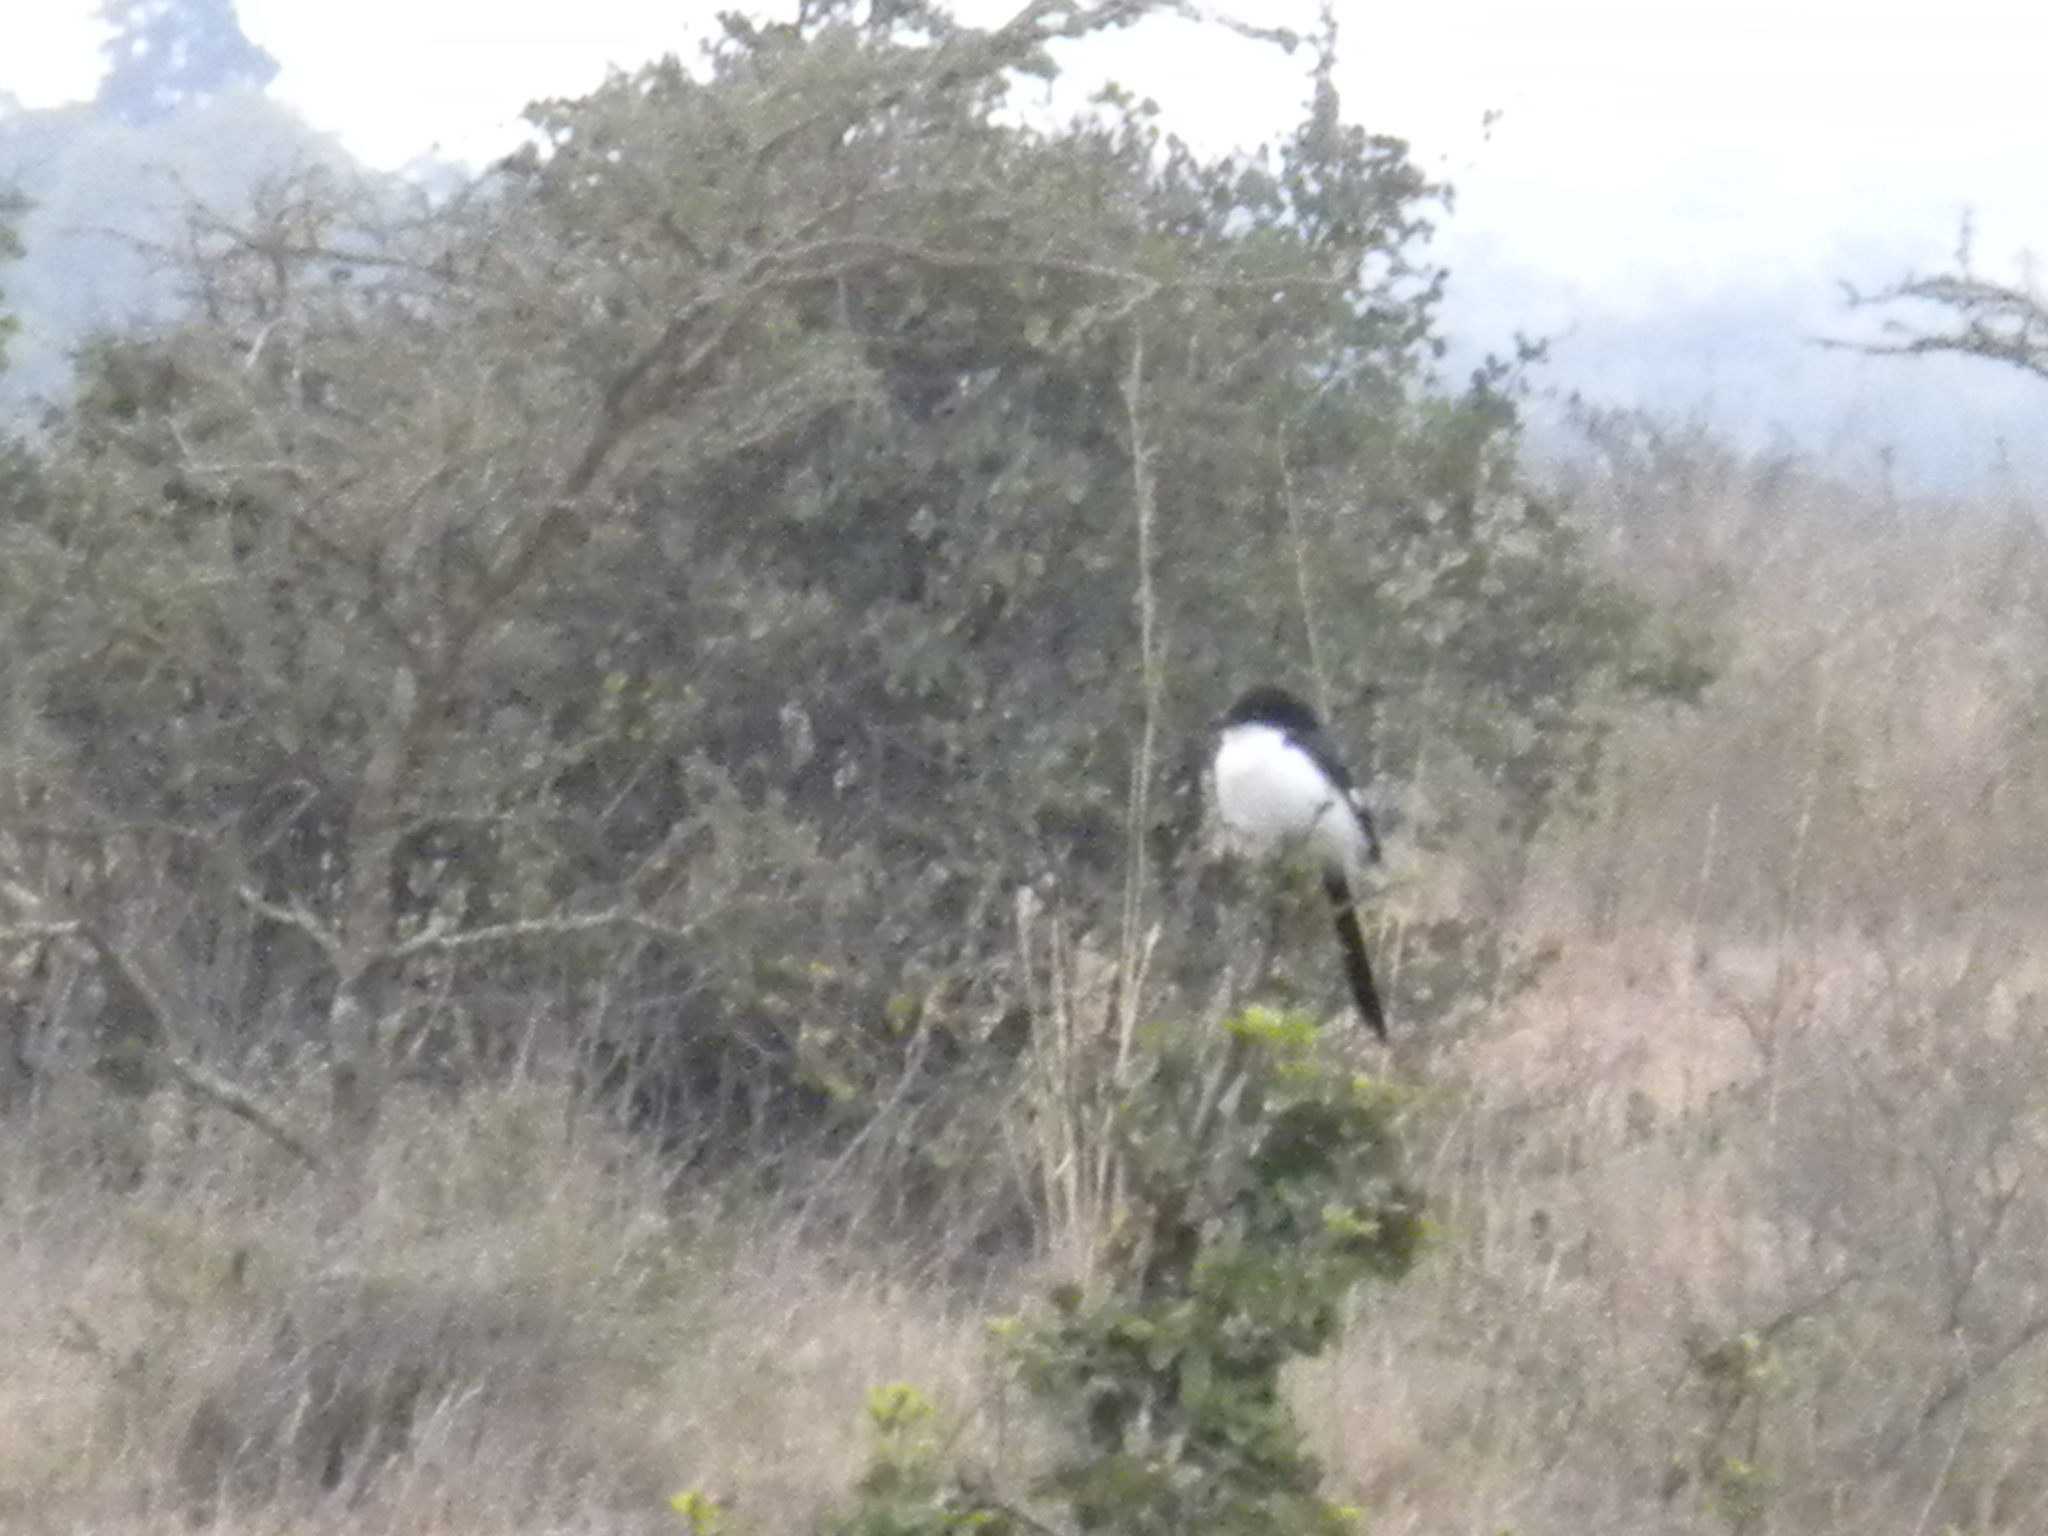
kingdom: Animalia
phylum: Chordata
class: Aves
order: Passeriformes
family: Laniidae
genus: Lanius
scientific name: Lanius cabanisi
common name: Long-tailed fiscal
